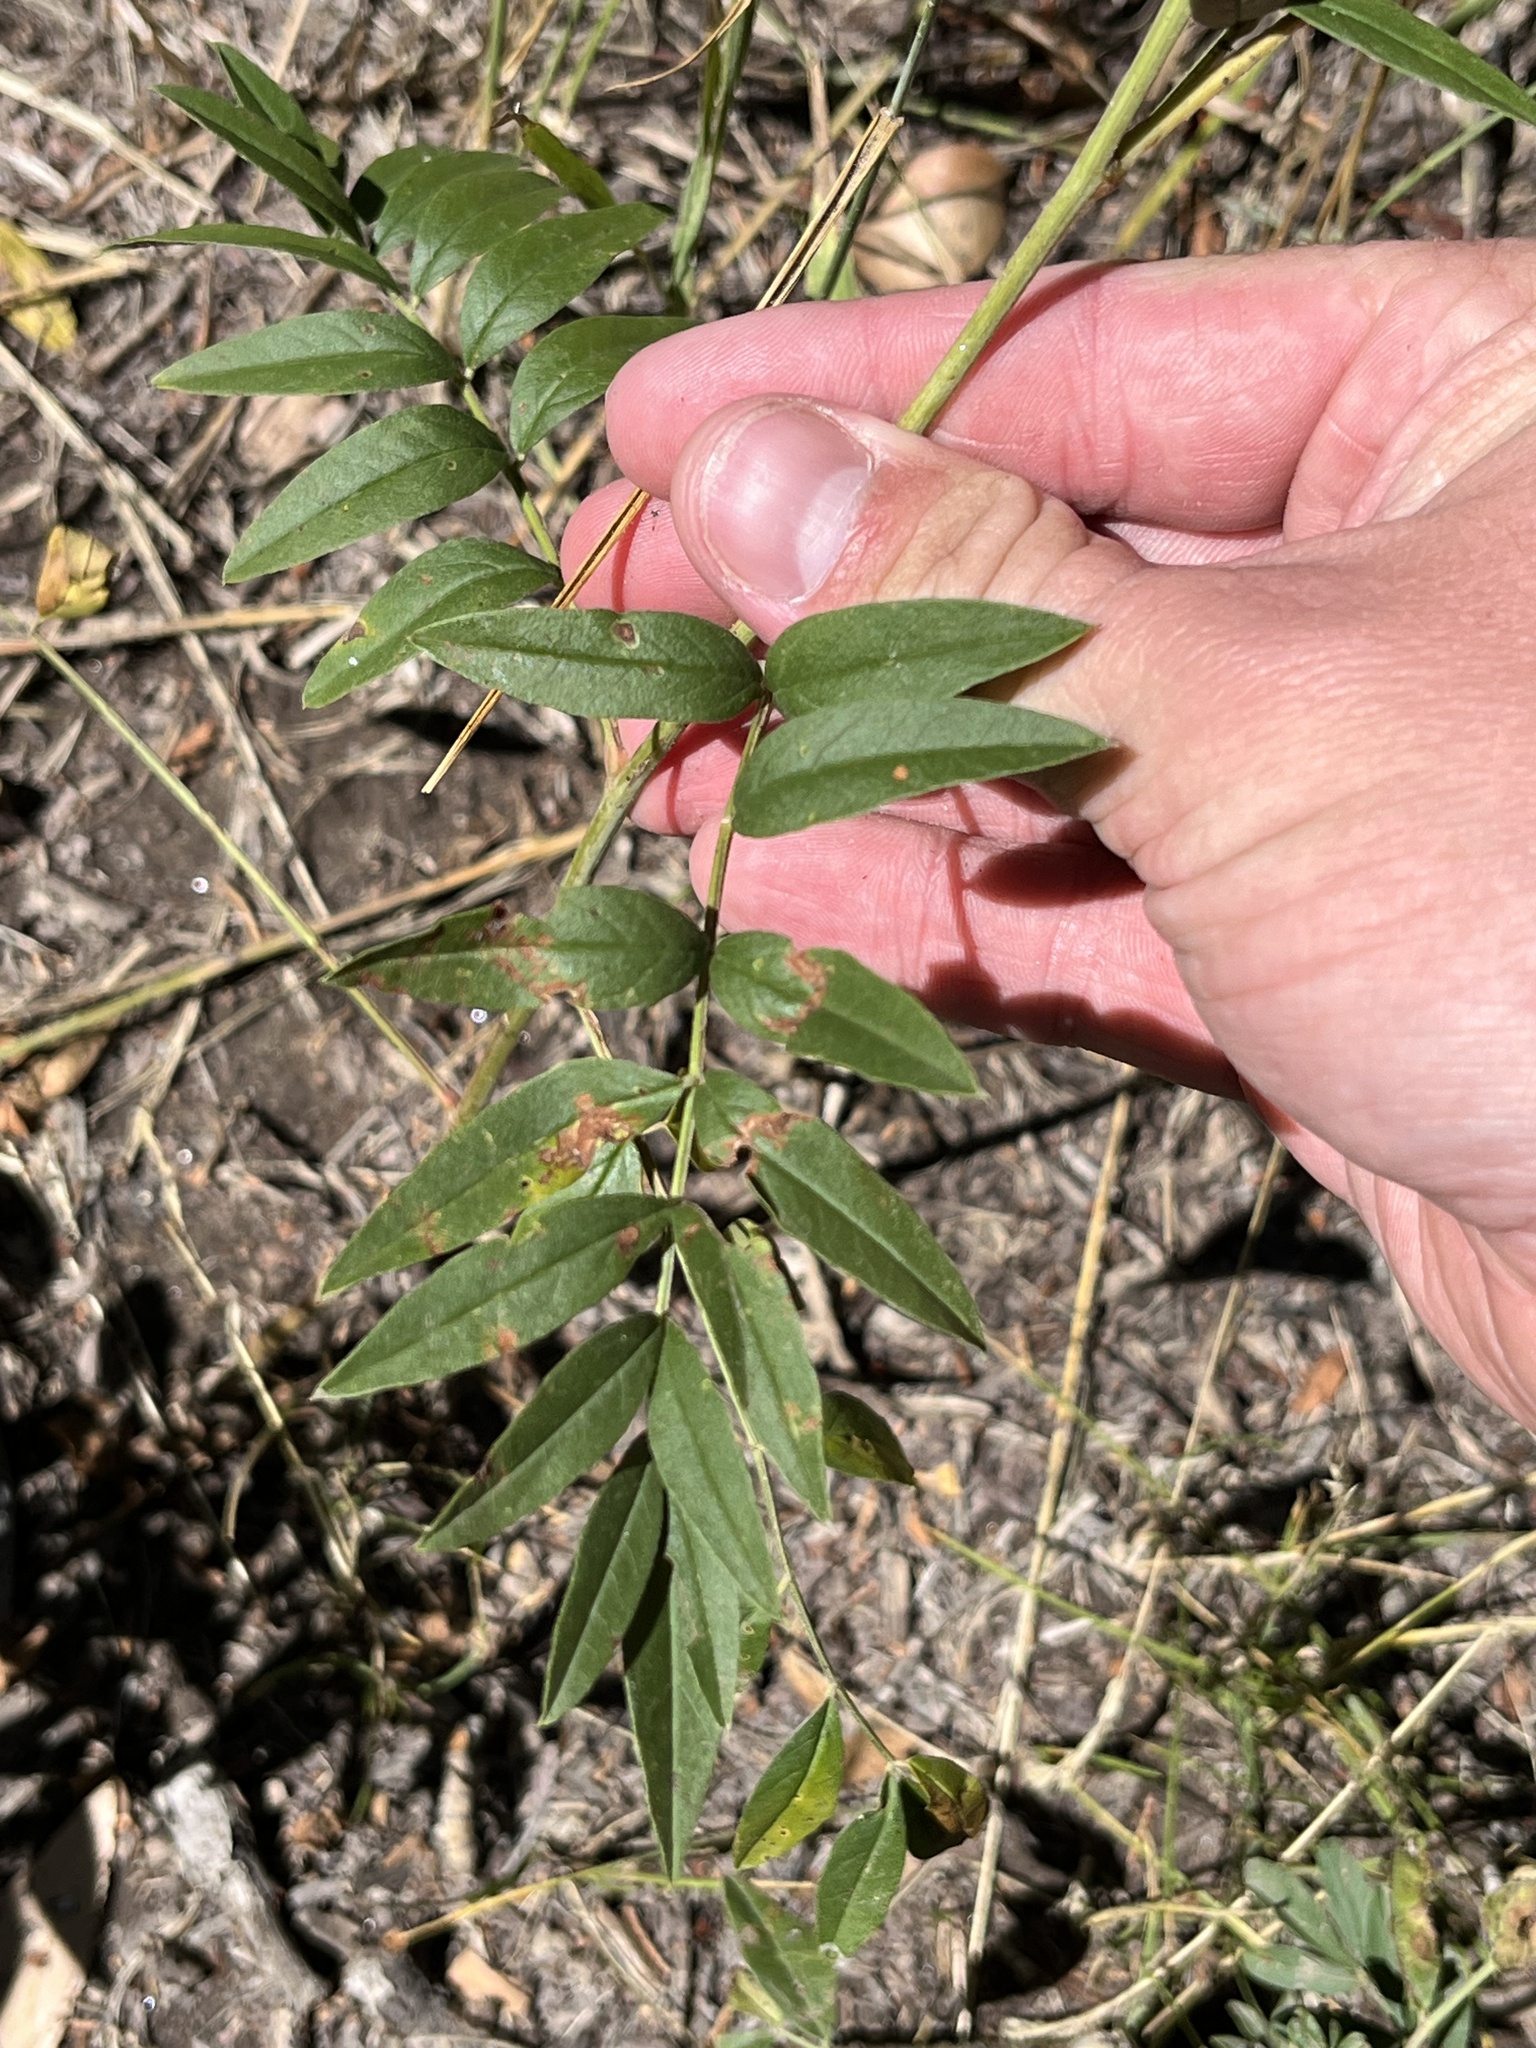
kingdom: Plantae
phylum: Tracheophyta
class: Magnoliopsida
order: Fabales
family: Fabaceae
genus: Glycyrrhiza
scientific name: Glycyrrhiza lepidota
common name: American liquorice
